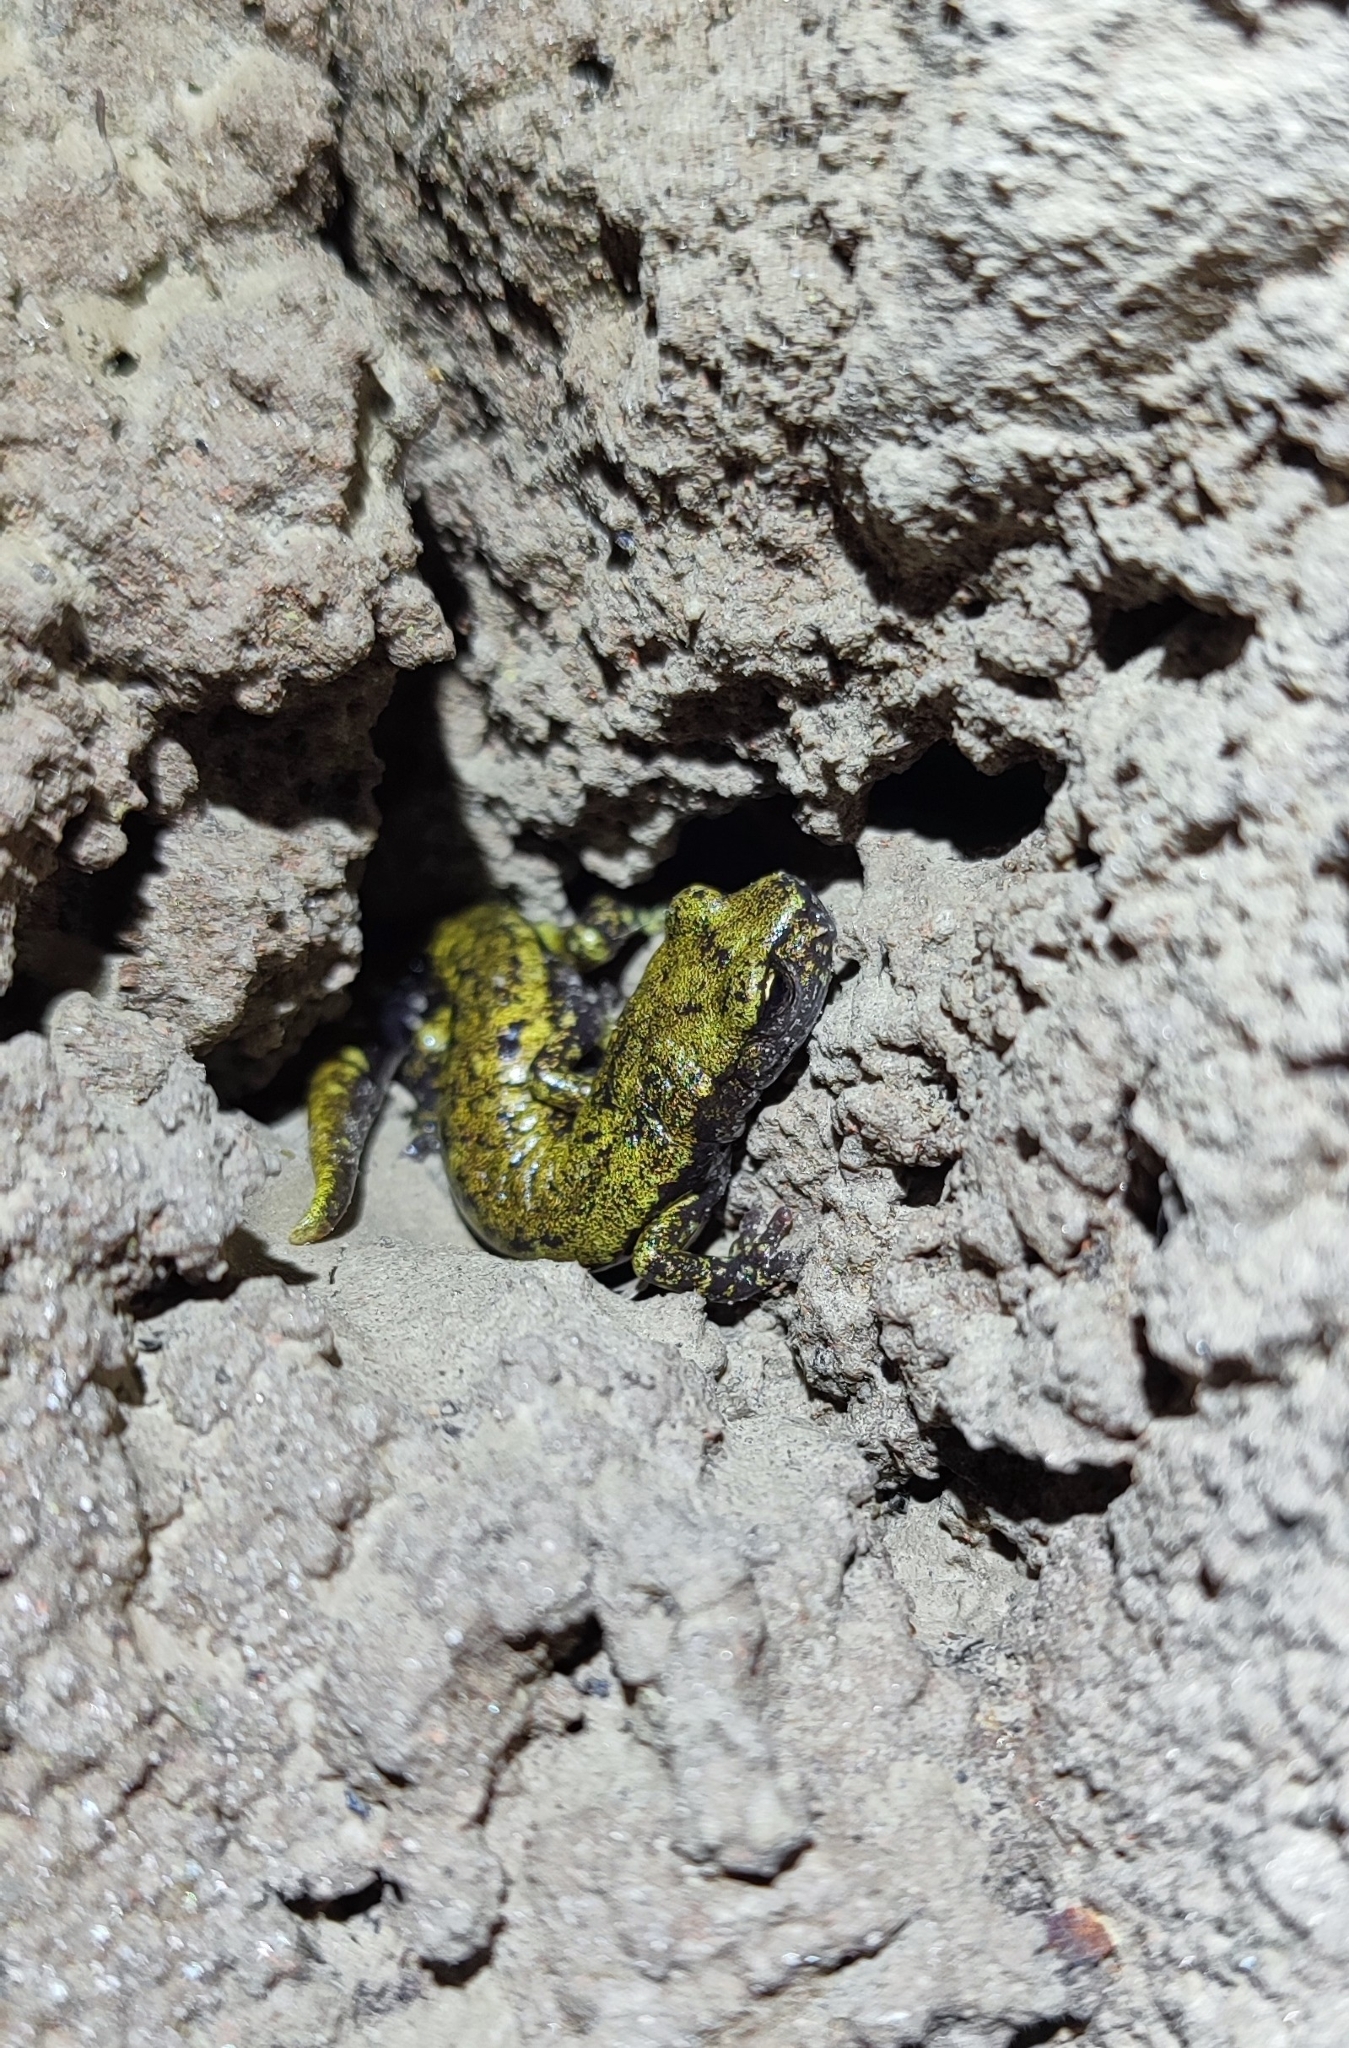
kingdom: Animalia
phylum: Chordata
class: Amphibia
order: Caudata
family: Plethodontidae
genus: Speleomantes
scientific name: Speleomantes strinatii
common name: French cave salamander
